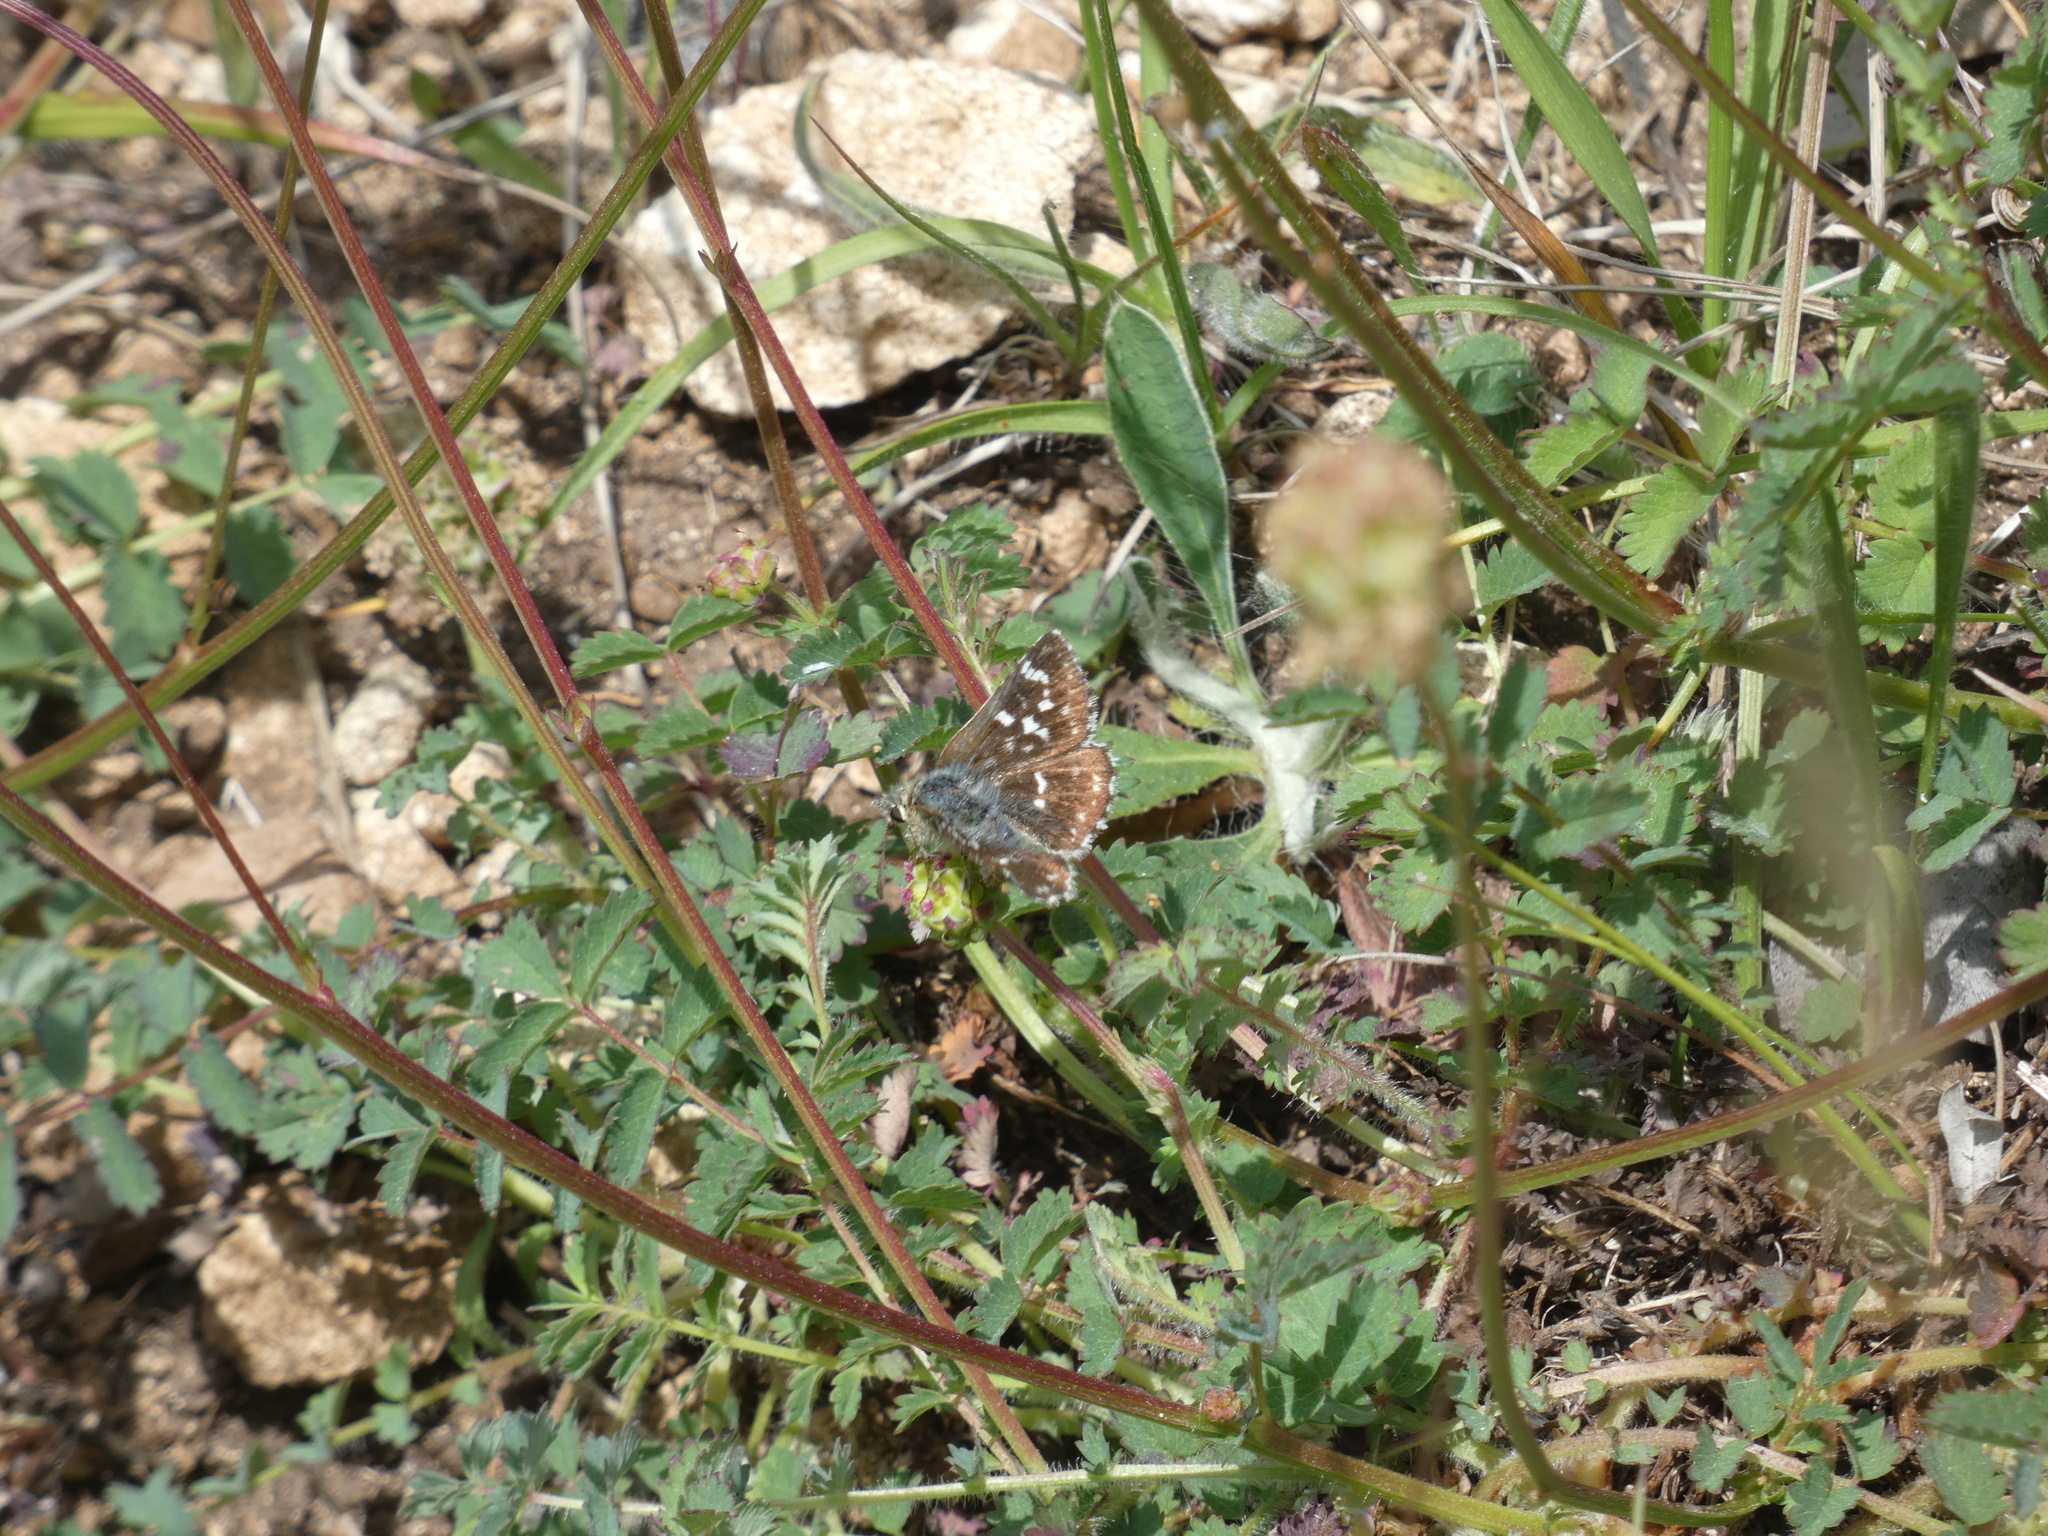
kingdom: Animalia
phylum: Arthropoda
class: Insecta
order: Lepidoptera
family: Hesperiidae
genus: Spialia
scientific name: Spialia sertorius
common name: Red underwing skipper
